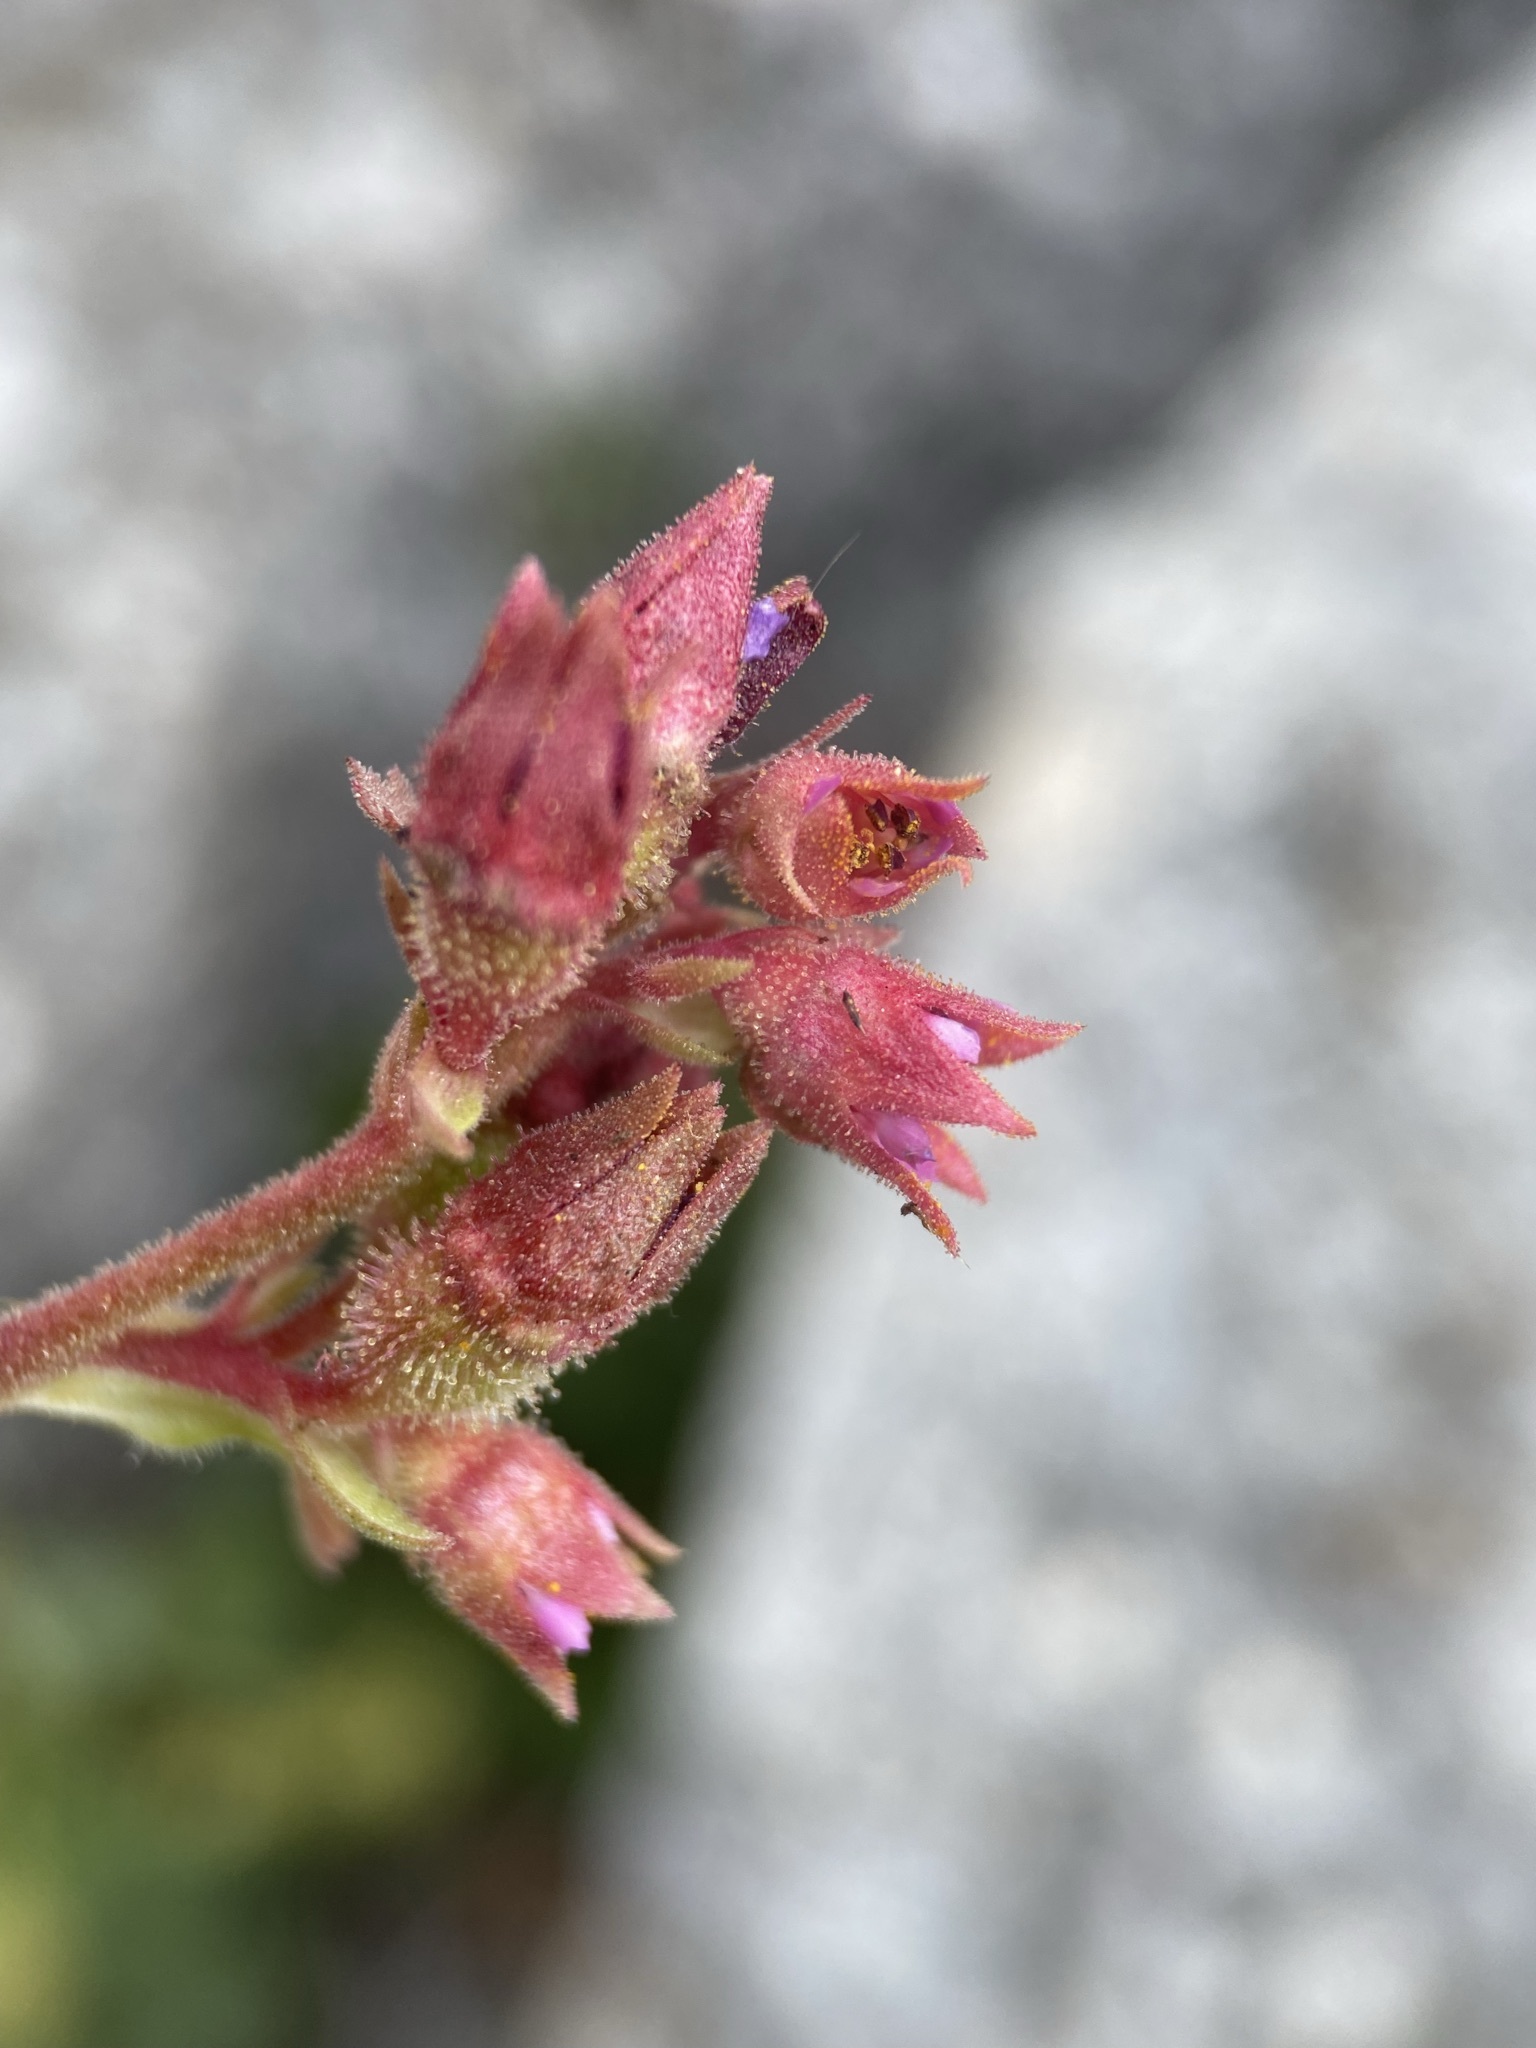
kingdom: Plantae
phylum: Tracheophyta
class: Magnoliopsida
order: Saxifragales
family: Saxifragaceae
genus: Telesonix
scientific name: Telesonix heucheriformis
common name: Alumroot brookfoam
